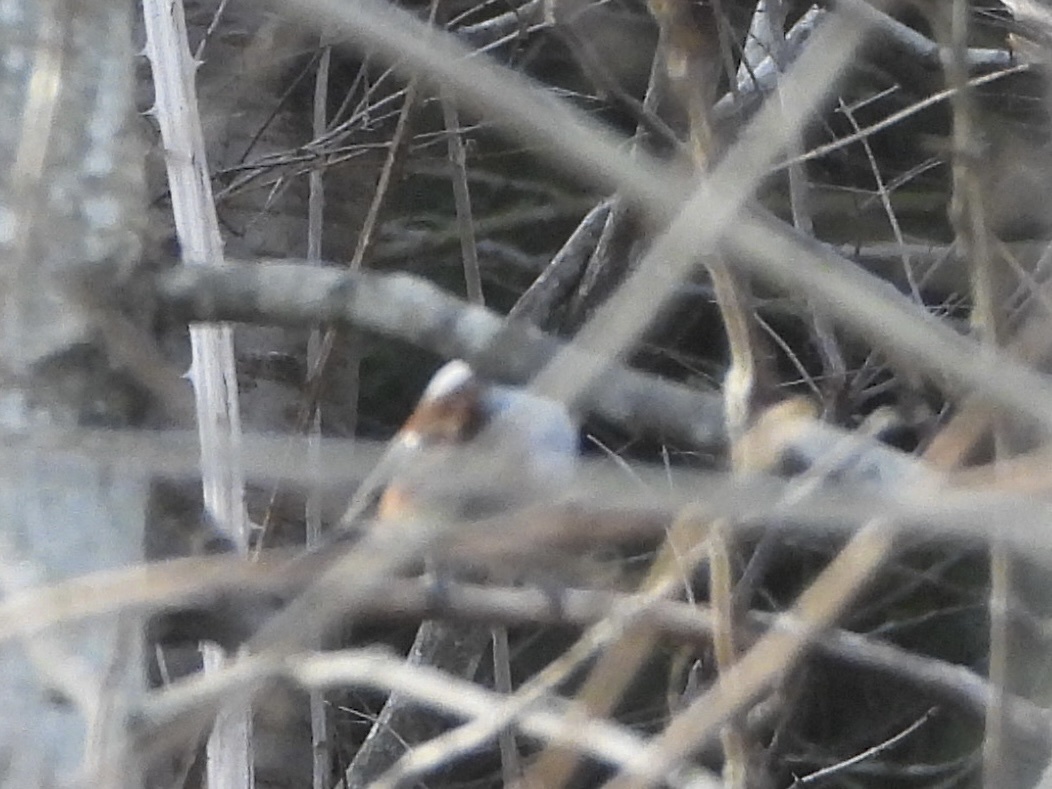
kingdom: Animalia
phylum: Chordata
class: Aves
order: Passeriformes
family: Paridae
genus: Poecile
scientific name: Poecile rufescens
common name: Chestnut-backed chickadee
